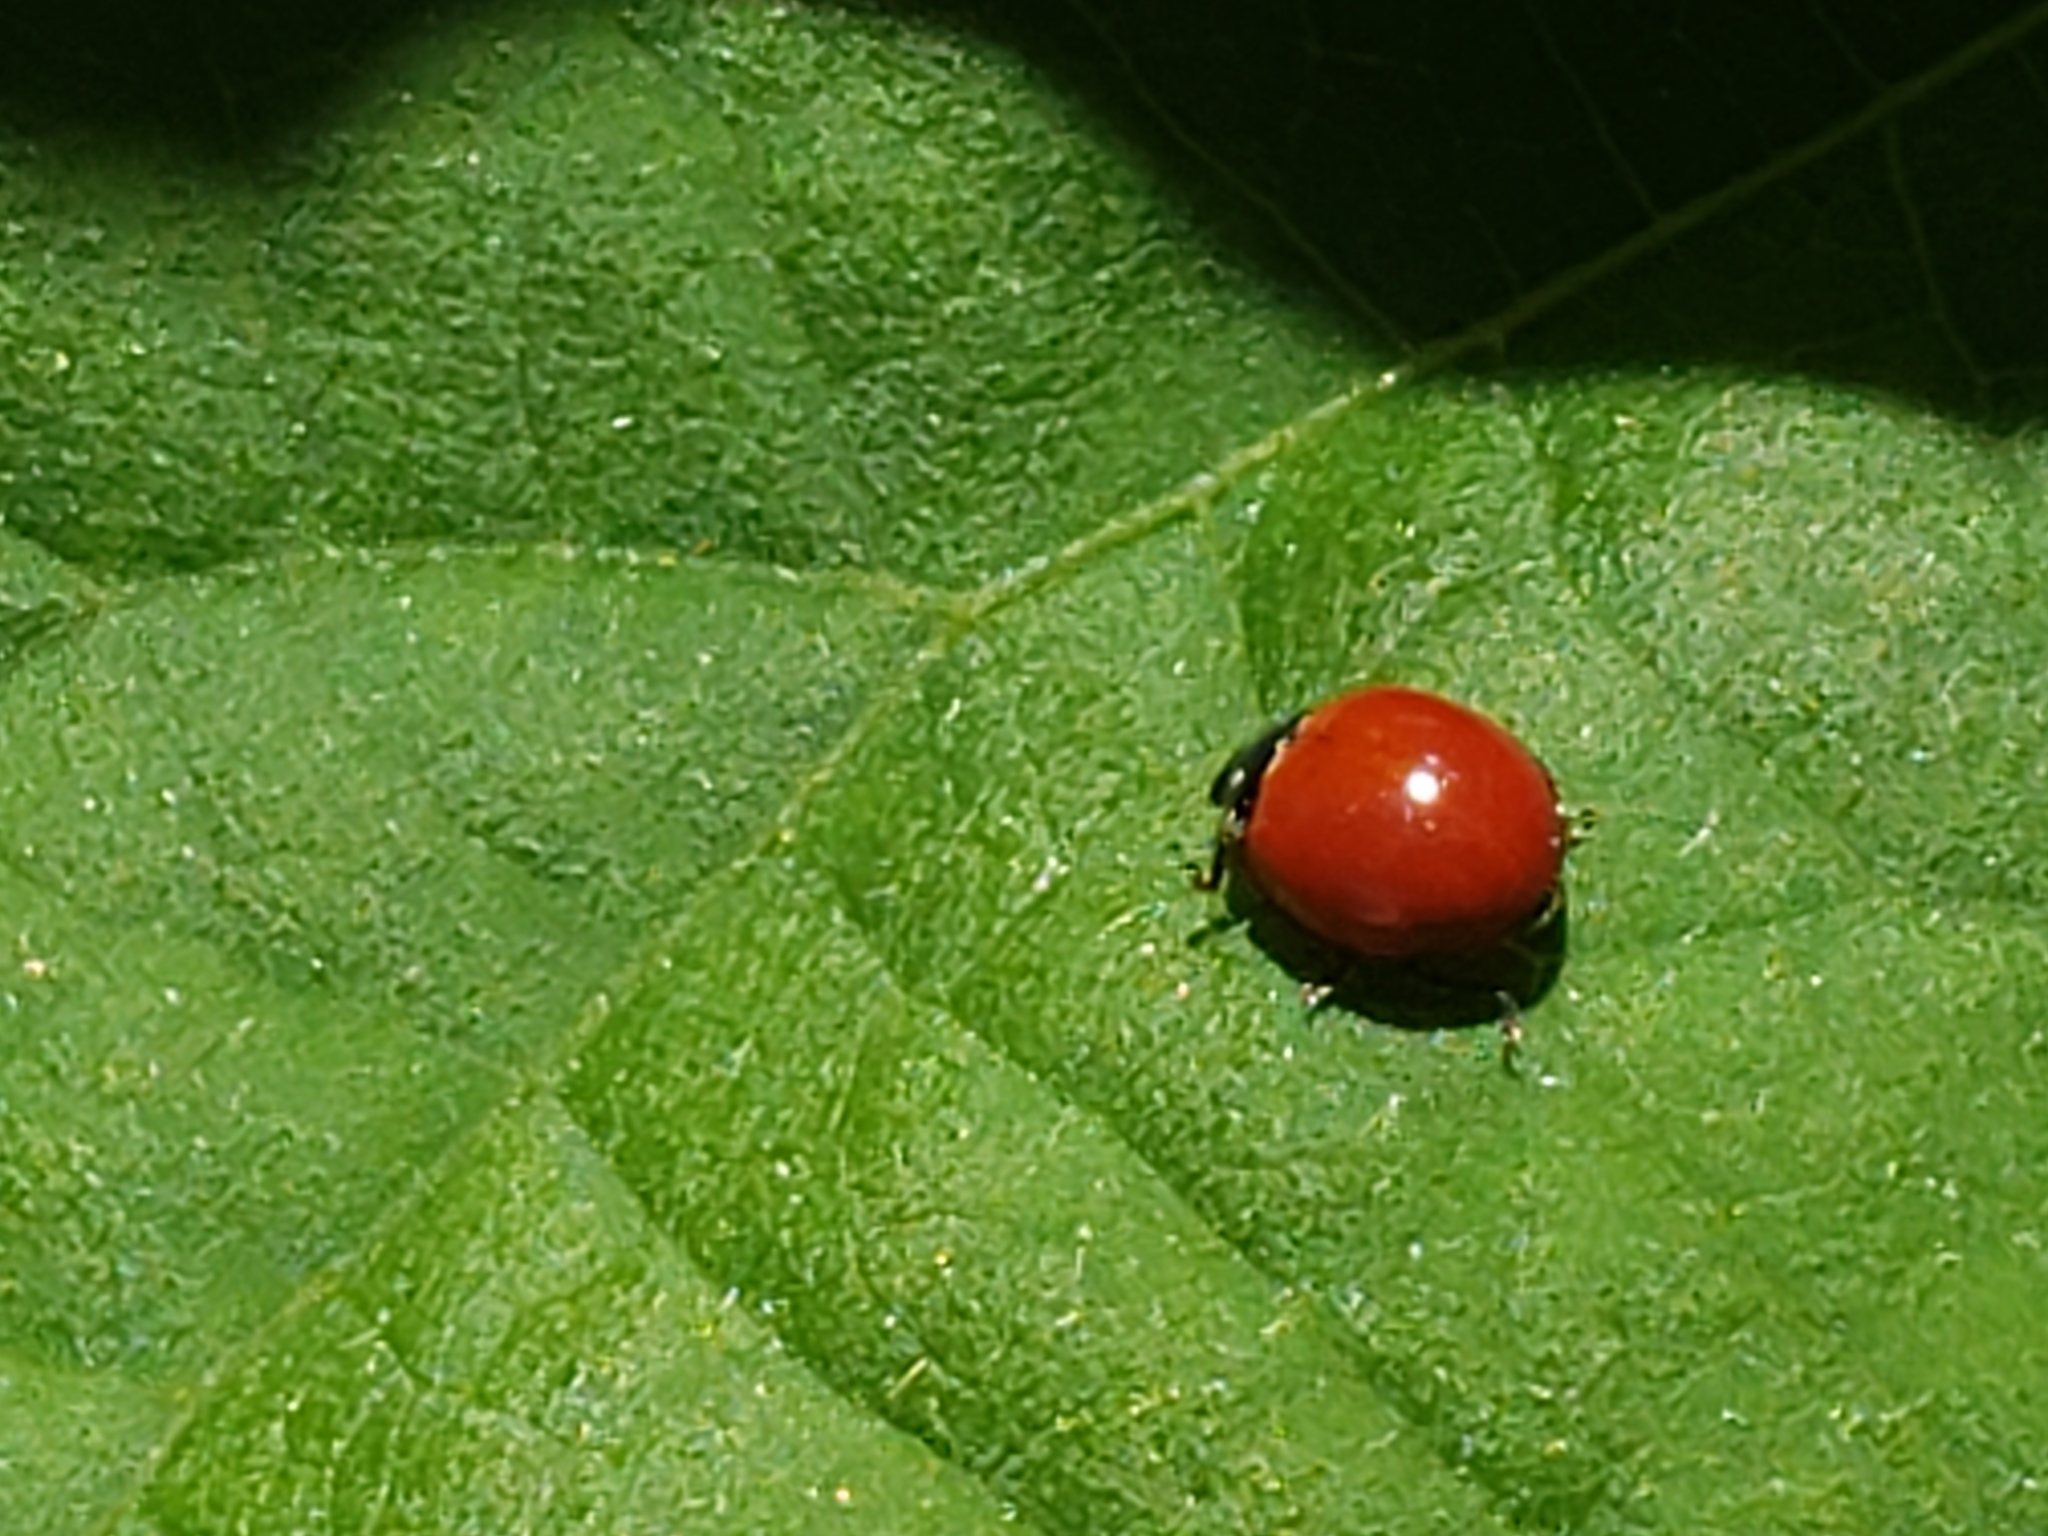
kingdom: Animalia
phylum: Arthropoda
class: Insecta
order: Coleoptera
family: Coccinellidae
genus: Cycloneda
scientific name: Cycloneda sanguinea
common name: Ladybird beetle
